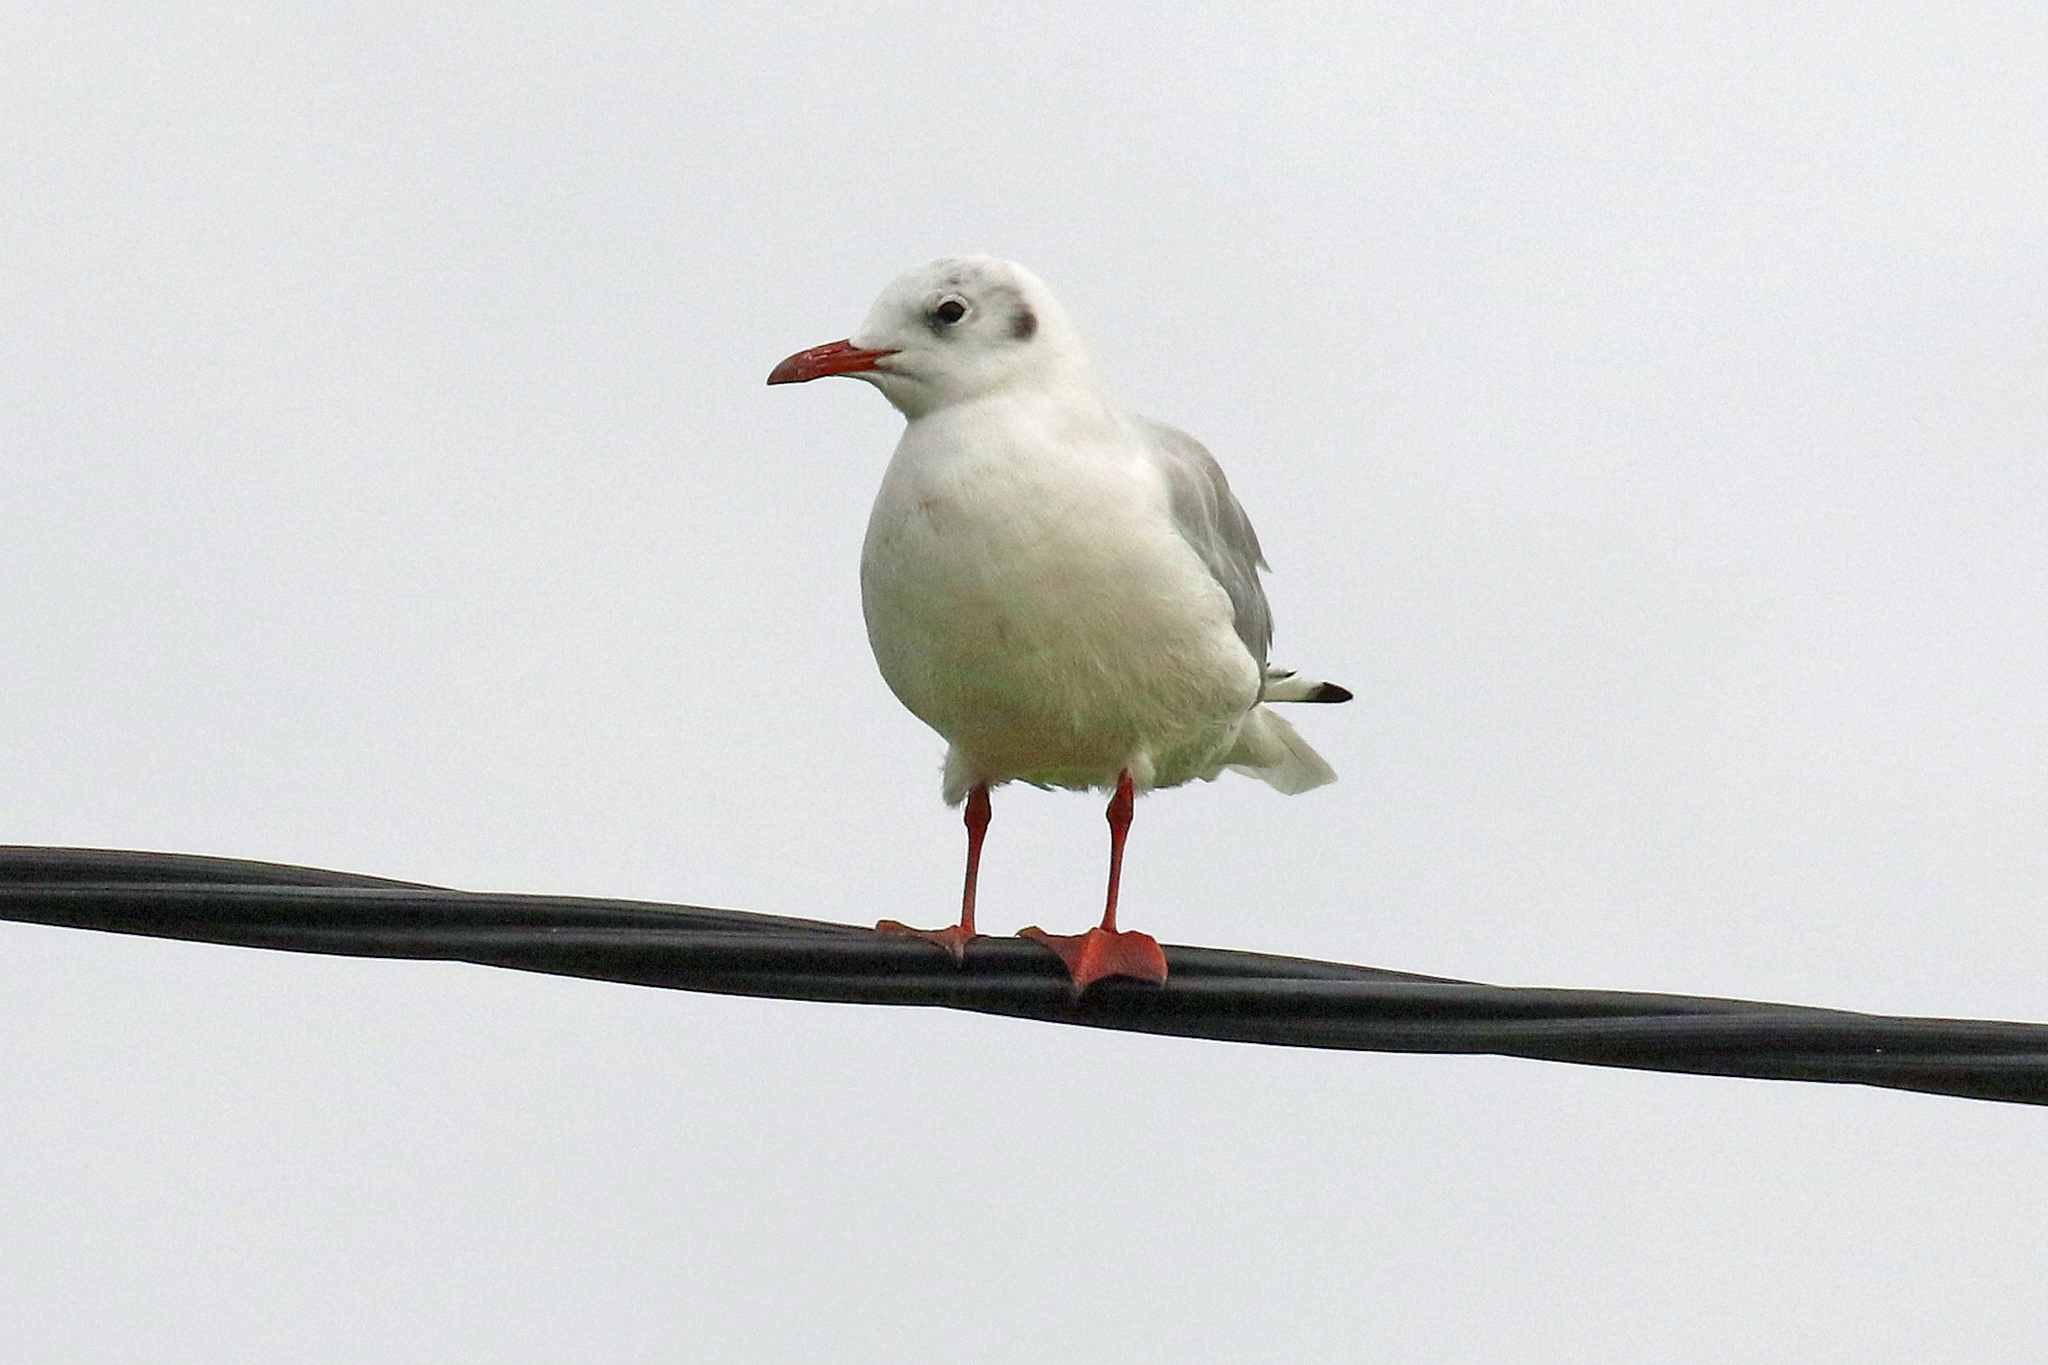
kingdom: Animalia
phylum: Chordata
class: Aves
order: Charadriiformes
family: Laridae
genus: Chroicocephalus
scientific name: Chroicocephalus ridibundus
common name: Black-headed gull
